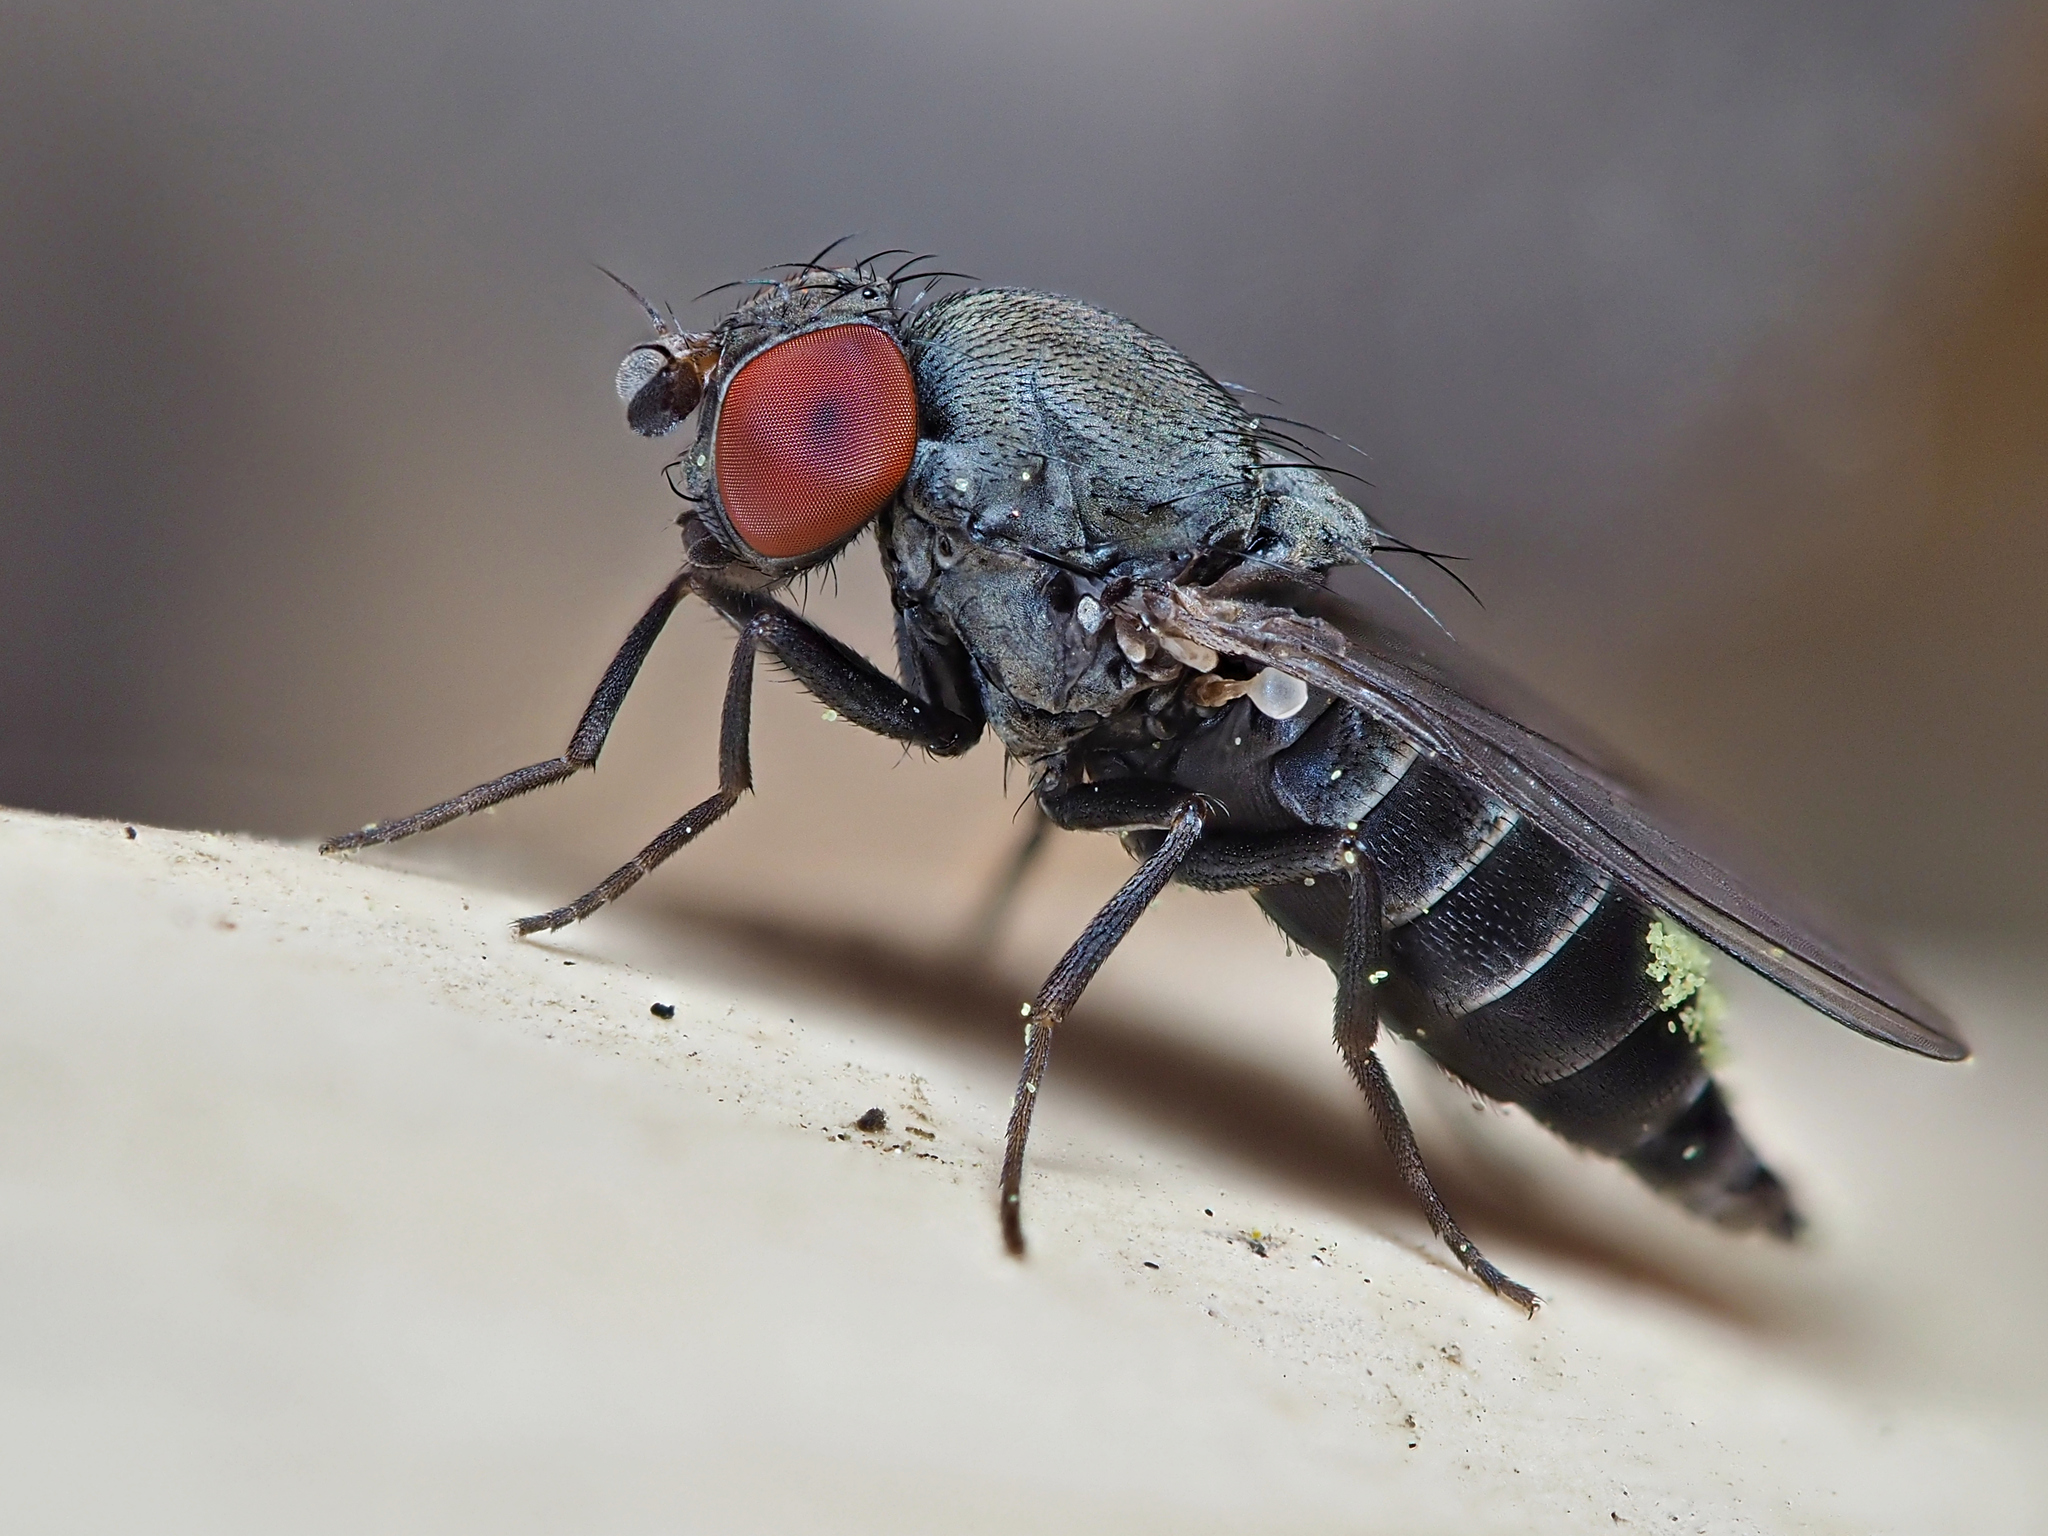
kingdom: Animalia
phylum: Arthropoda
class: Insecta
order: Diptera
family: Drosophilidae
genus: Cacoxenus
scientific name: Cacoxenus indagator
